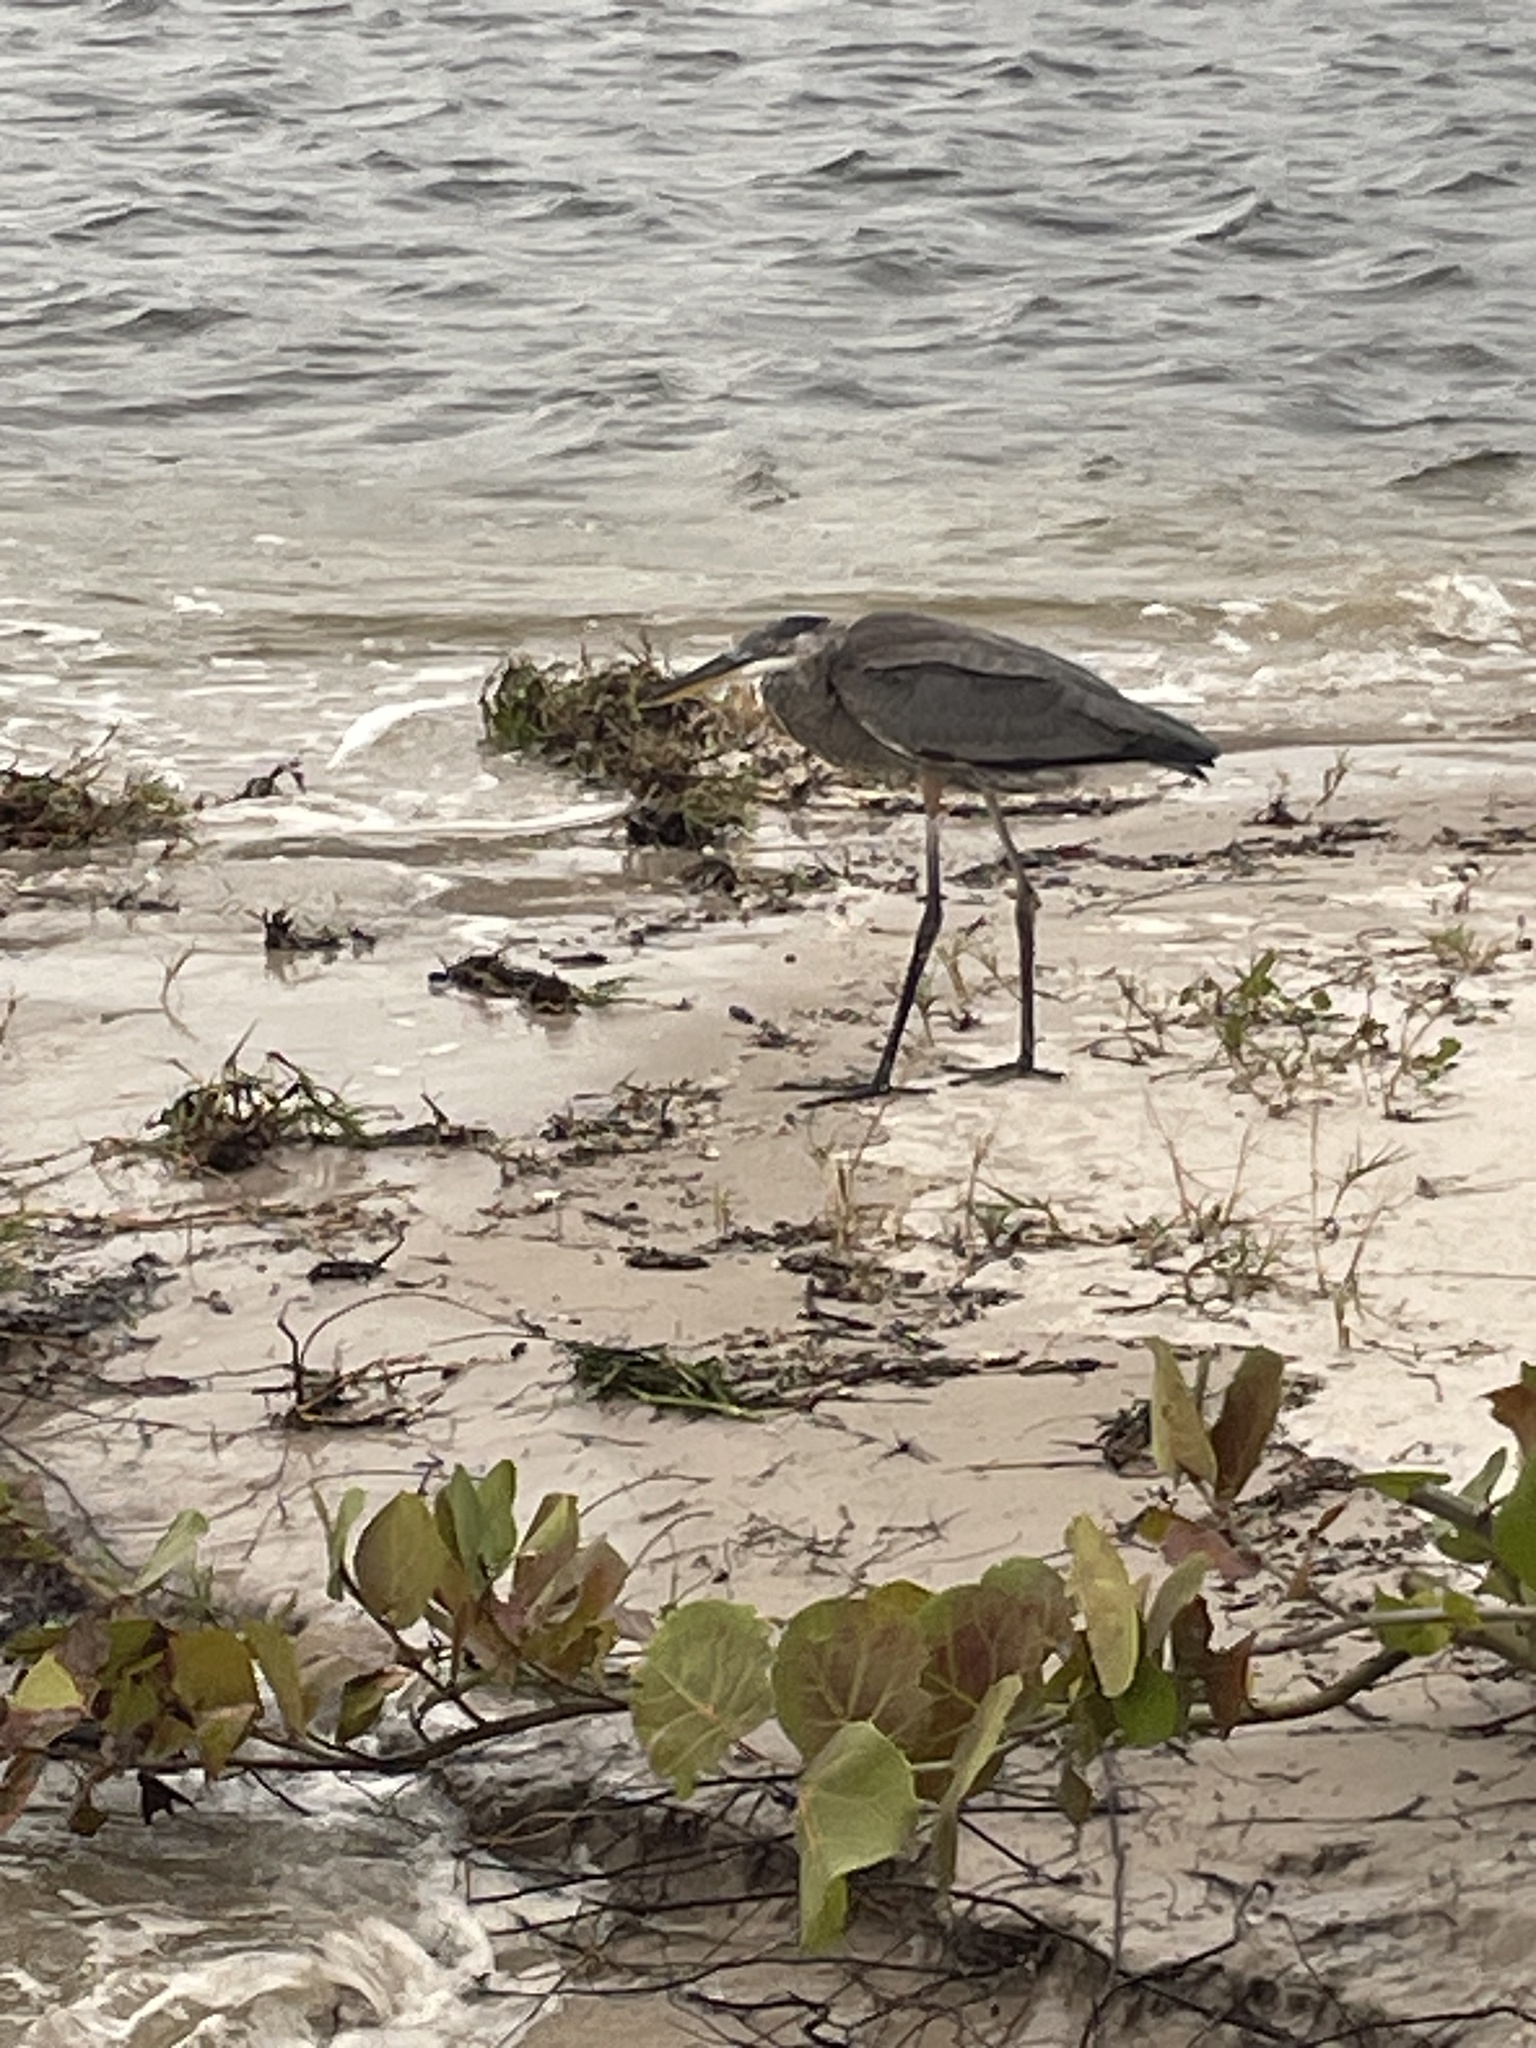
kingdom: Animalia
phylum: Chordata
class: Aves
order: Pelecaniformes
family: Ardeidae
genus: Ardea
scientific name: Ardea herodias
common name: Great blue heron
